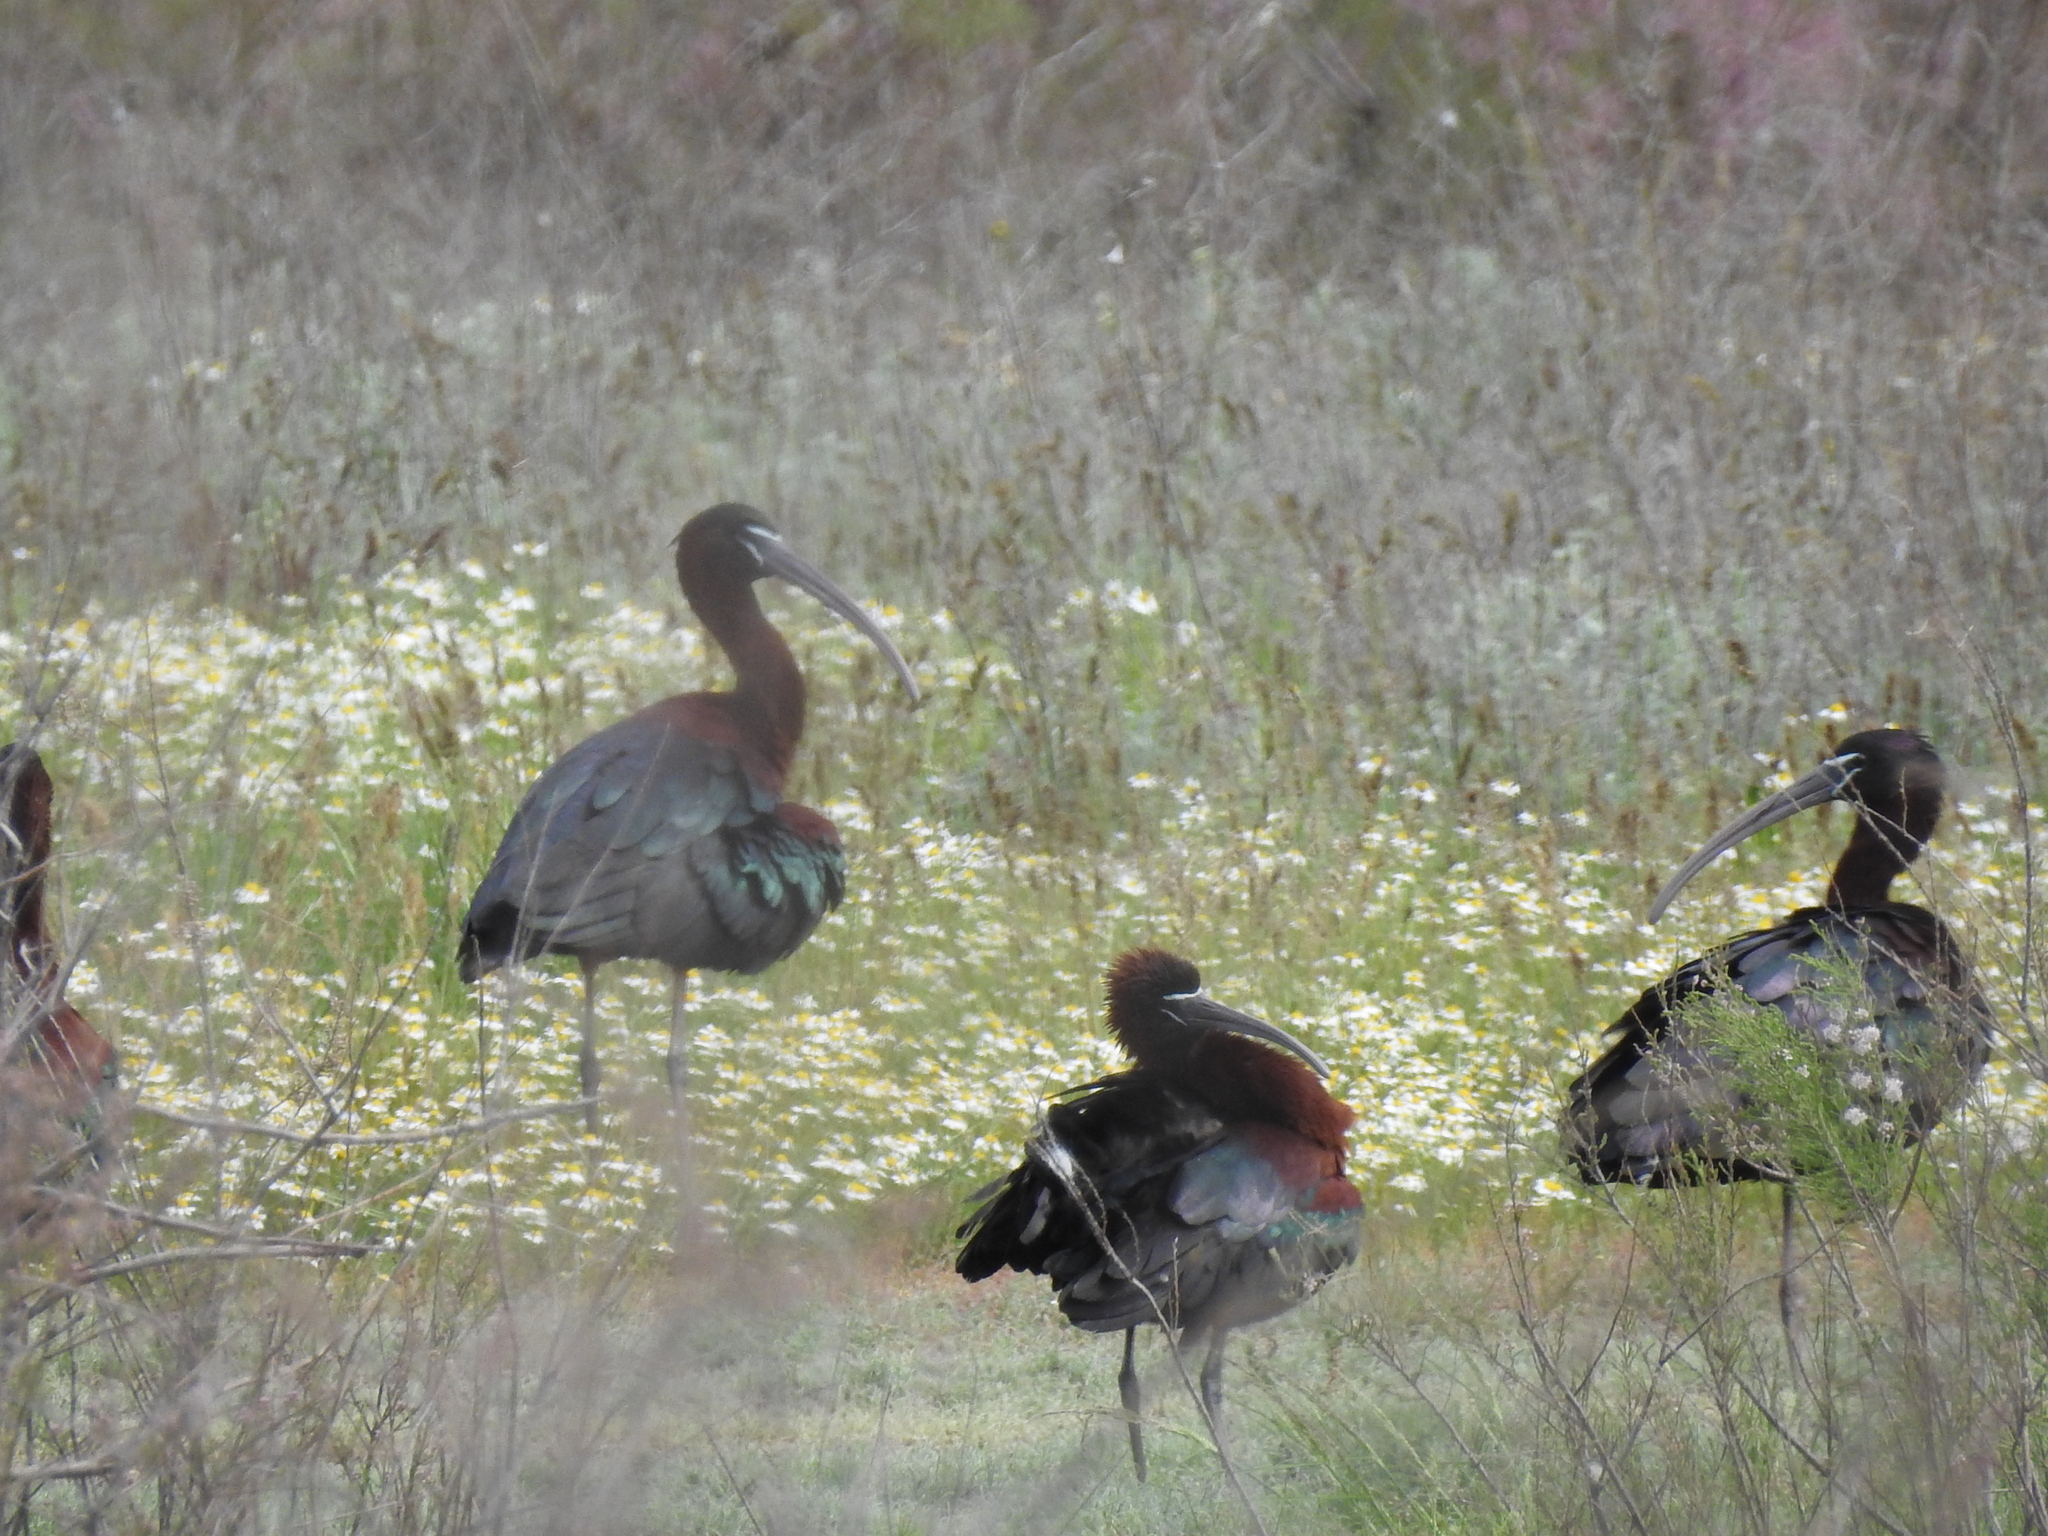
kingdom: Animalia
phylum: Chordata
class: Aves
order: Pelecaniformes
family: Threskiornithidae
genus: Plegadis
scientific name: Plegadis falcinellus
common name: Glossy ibis
